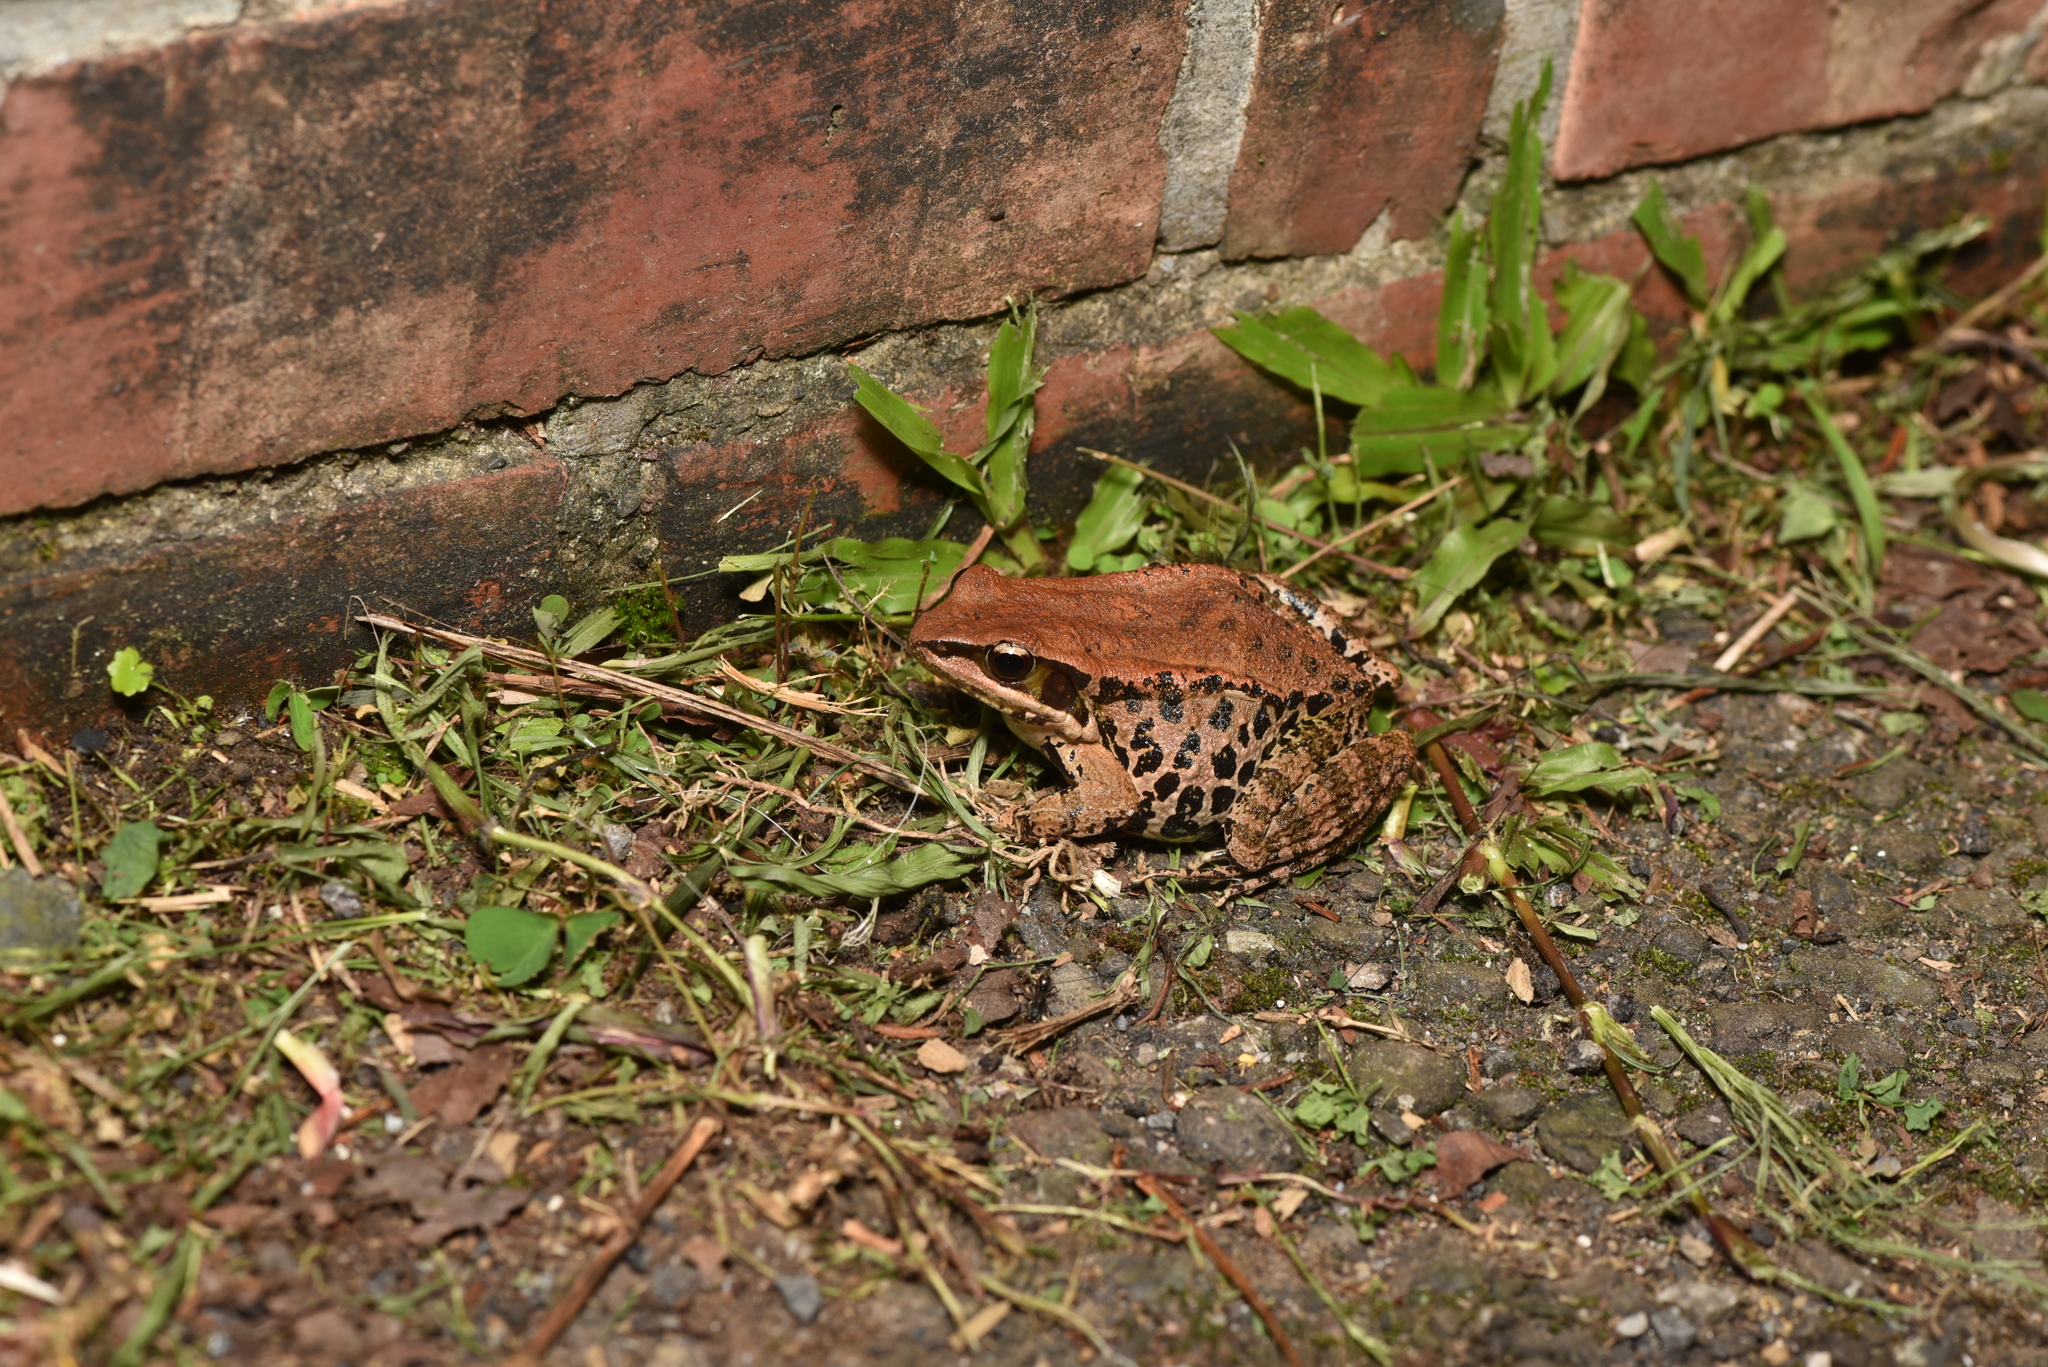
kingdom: Animalia
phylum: Chordata
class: Amphibia
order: Anura
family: Ranidae
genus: Hylarana
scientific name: Hylarana latouchii
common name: Broad-folded frog
